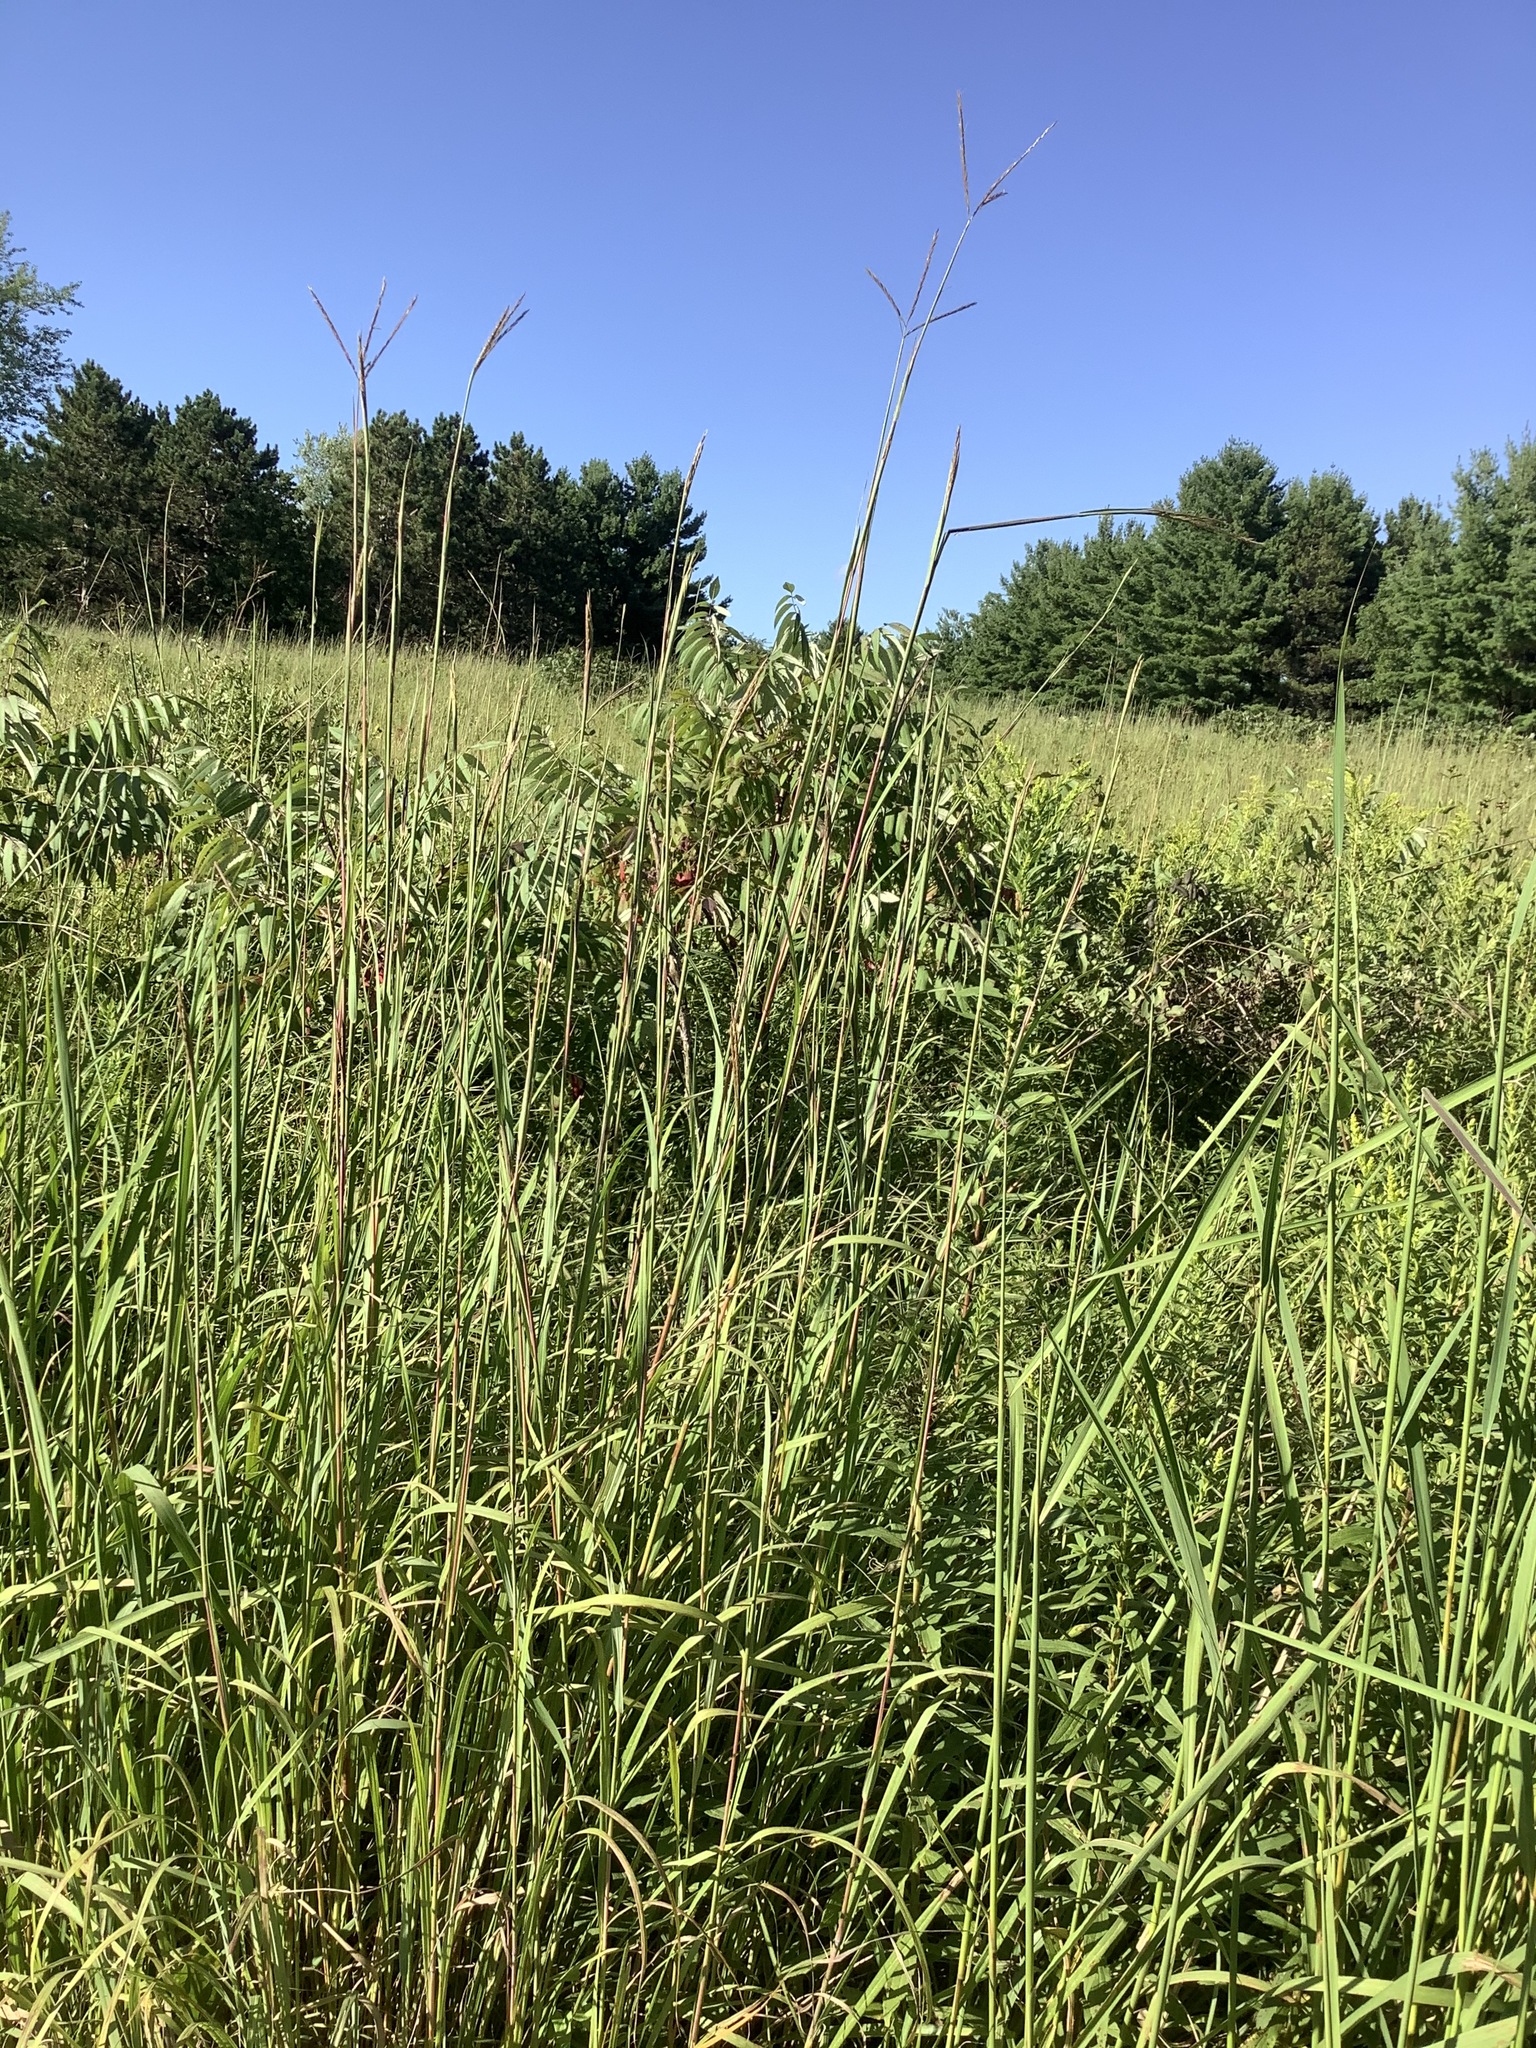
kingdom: Plantae
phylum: Tracheophyta
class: Liliopsida
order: Poales
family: Poaceae
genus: Andropogon
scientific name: Andropogon gerardi
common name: Big bluestem
